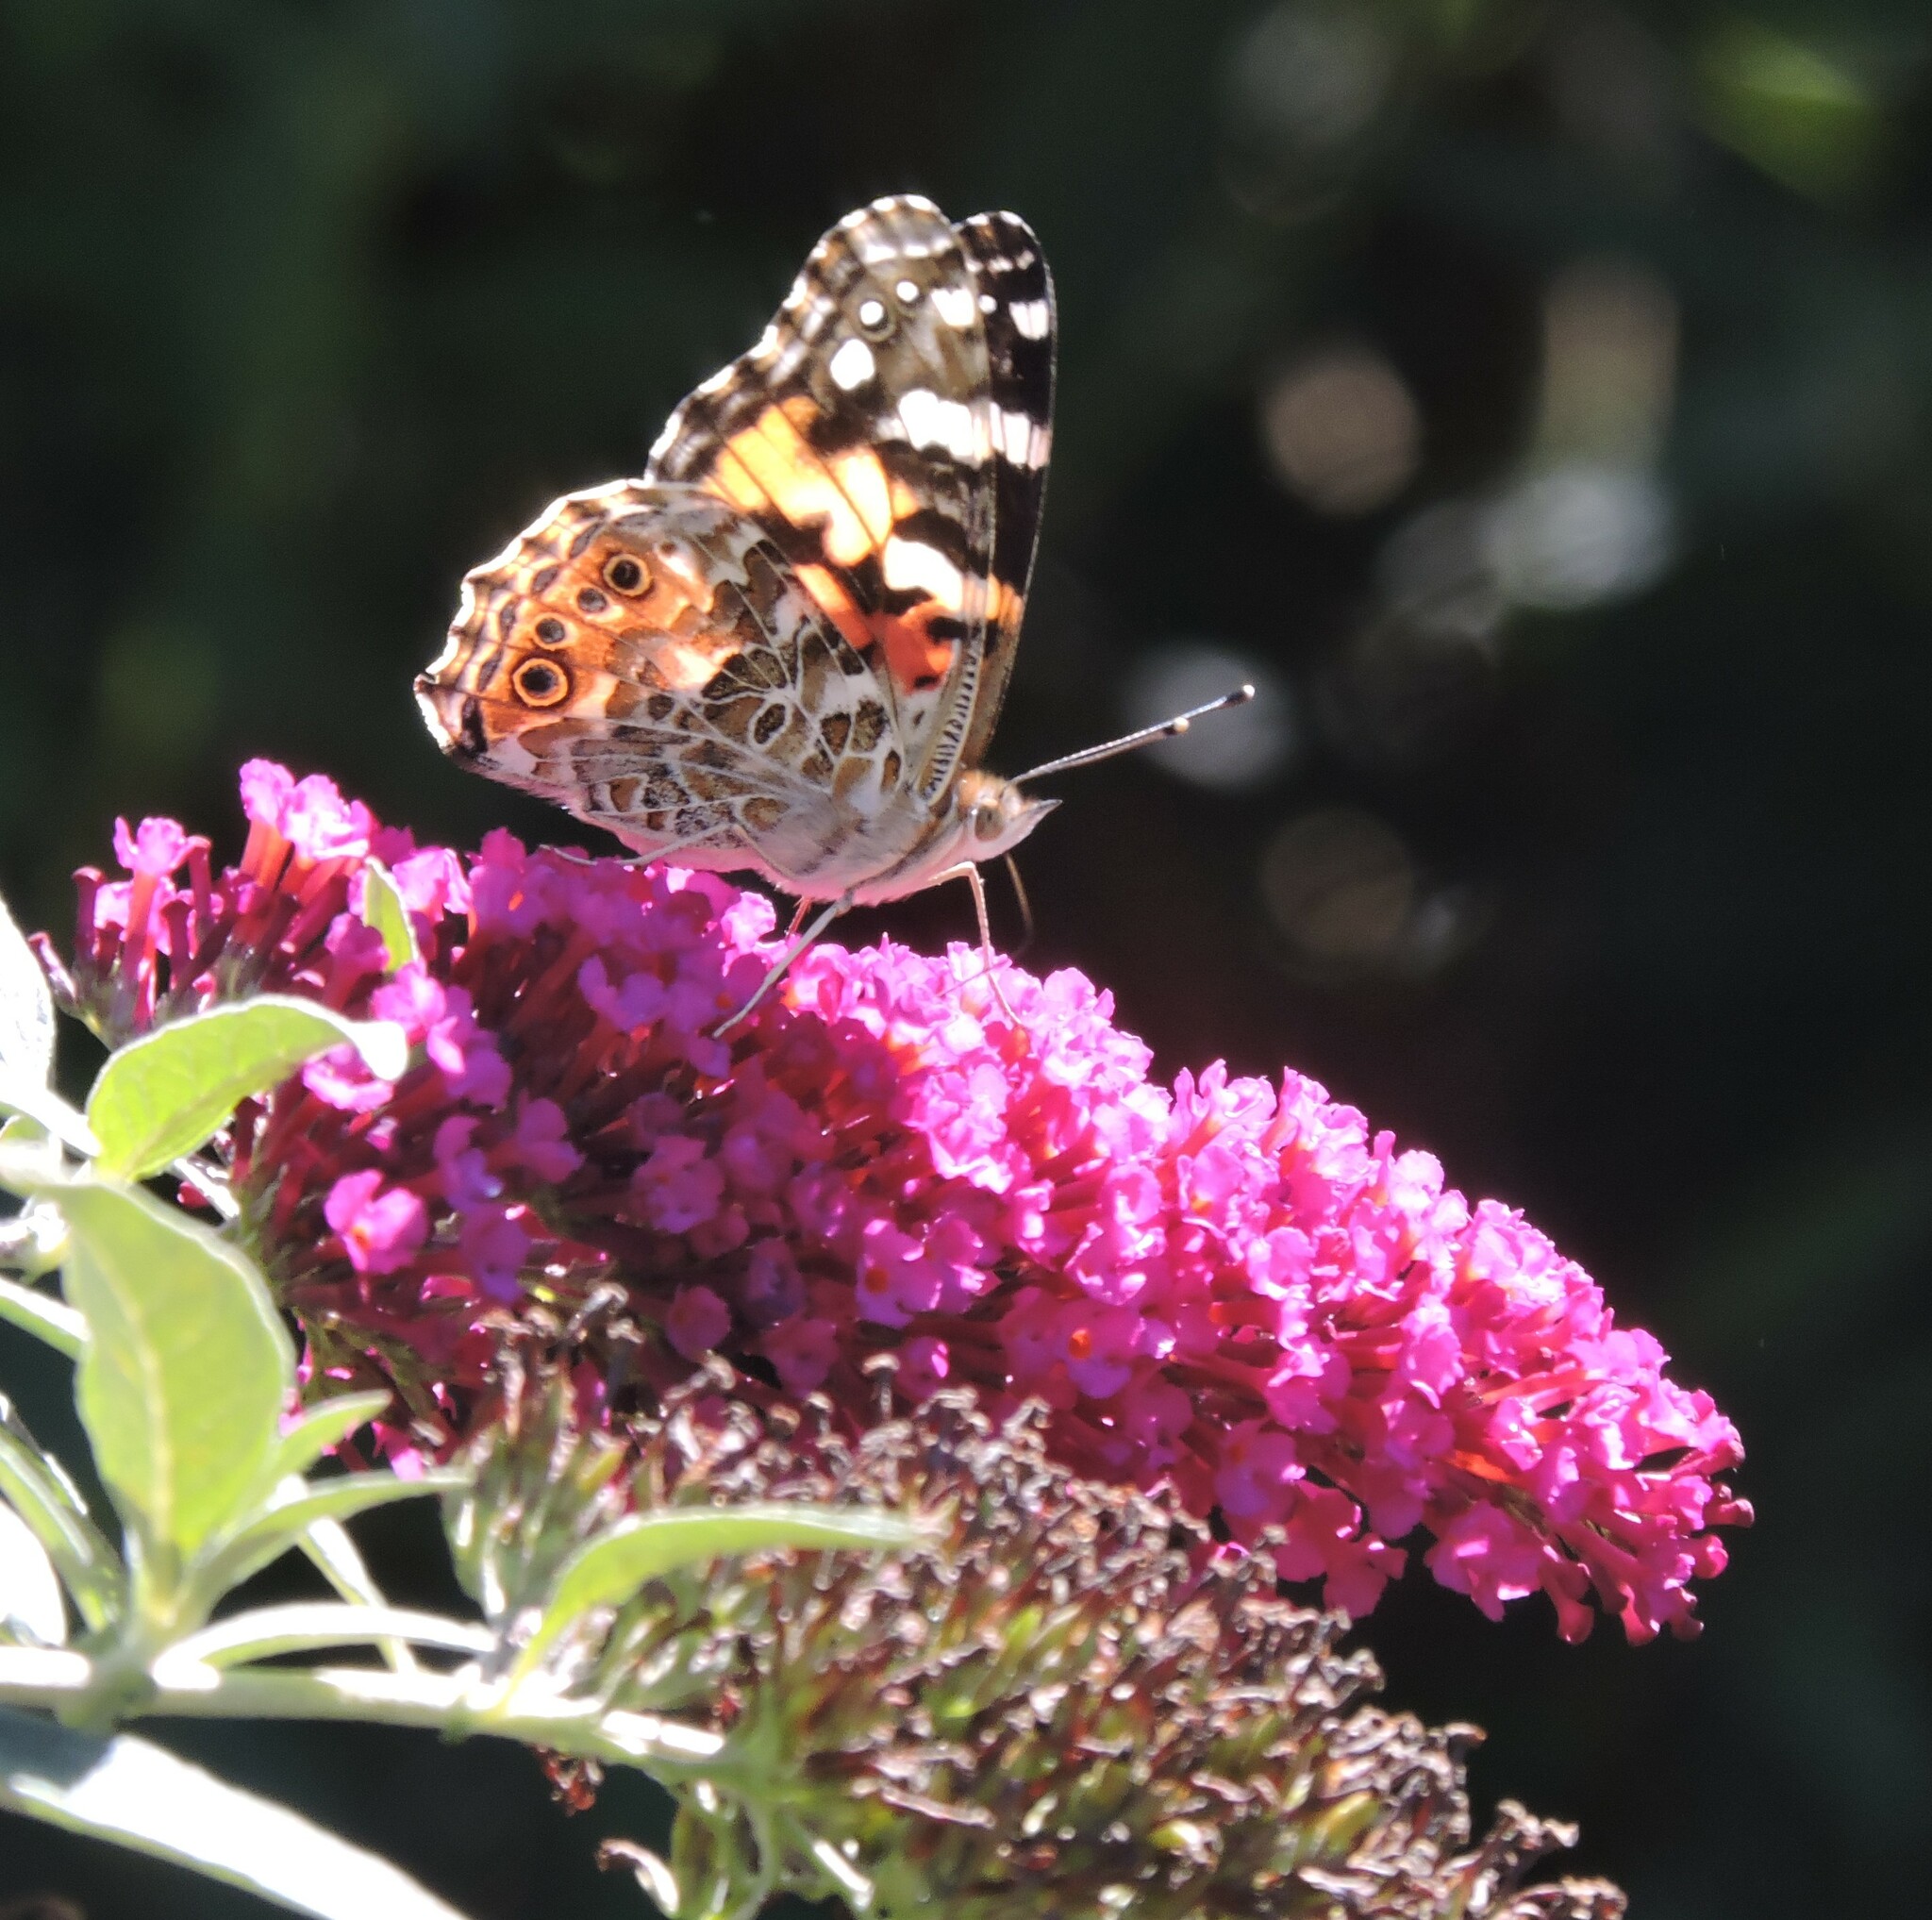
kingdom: Animalia
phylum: Arthropoda
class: Insecta
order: Lepidoptera
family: Nymphalidae
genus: Vanessa
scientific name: Vanessa cardui
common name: Painted lady
